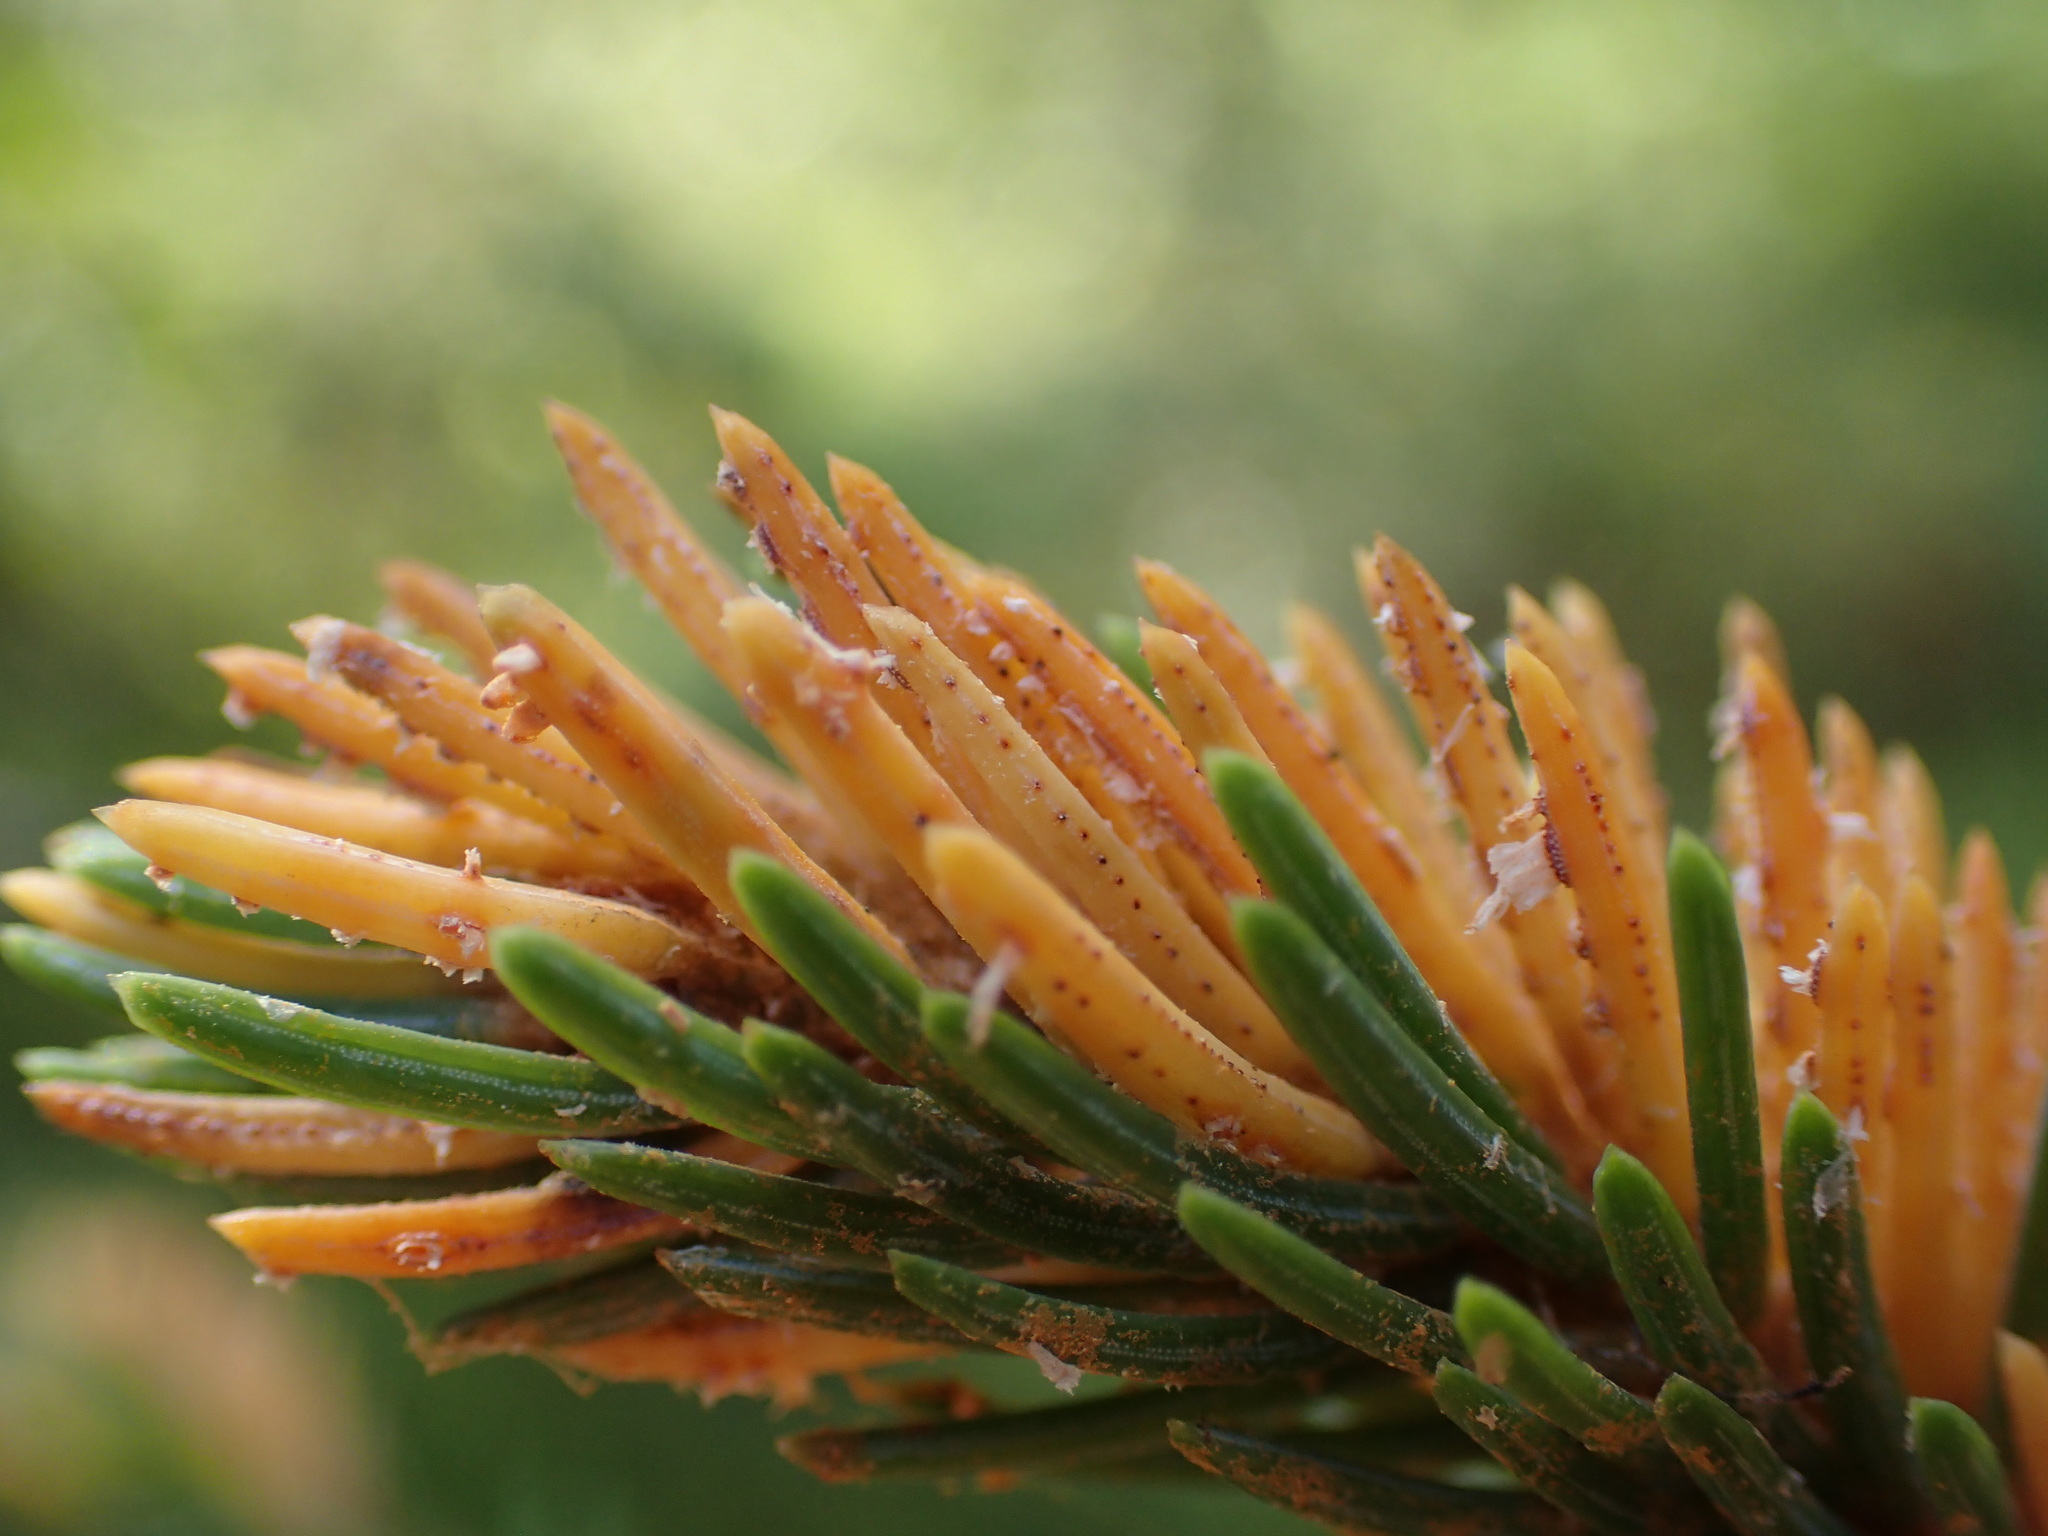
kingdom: Fungi
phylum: Basidiomycota
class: Pucciniomycetes
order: Pucciniales
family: Coleosporiaceae
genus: Chrysomyxa
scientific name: Chrysomyxa ledicola
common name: Spruce-labrador tea needle rust
